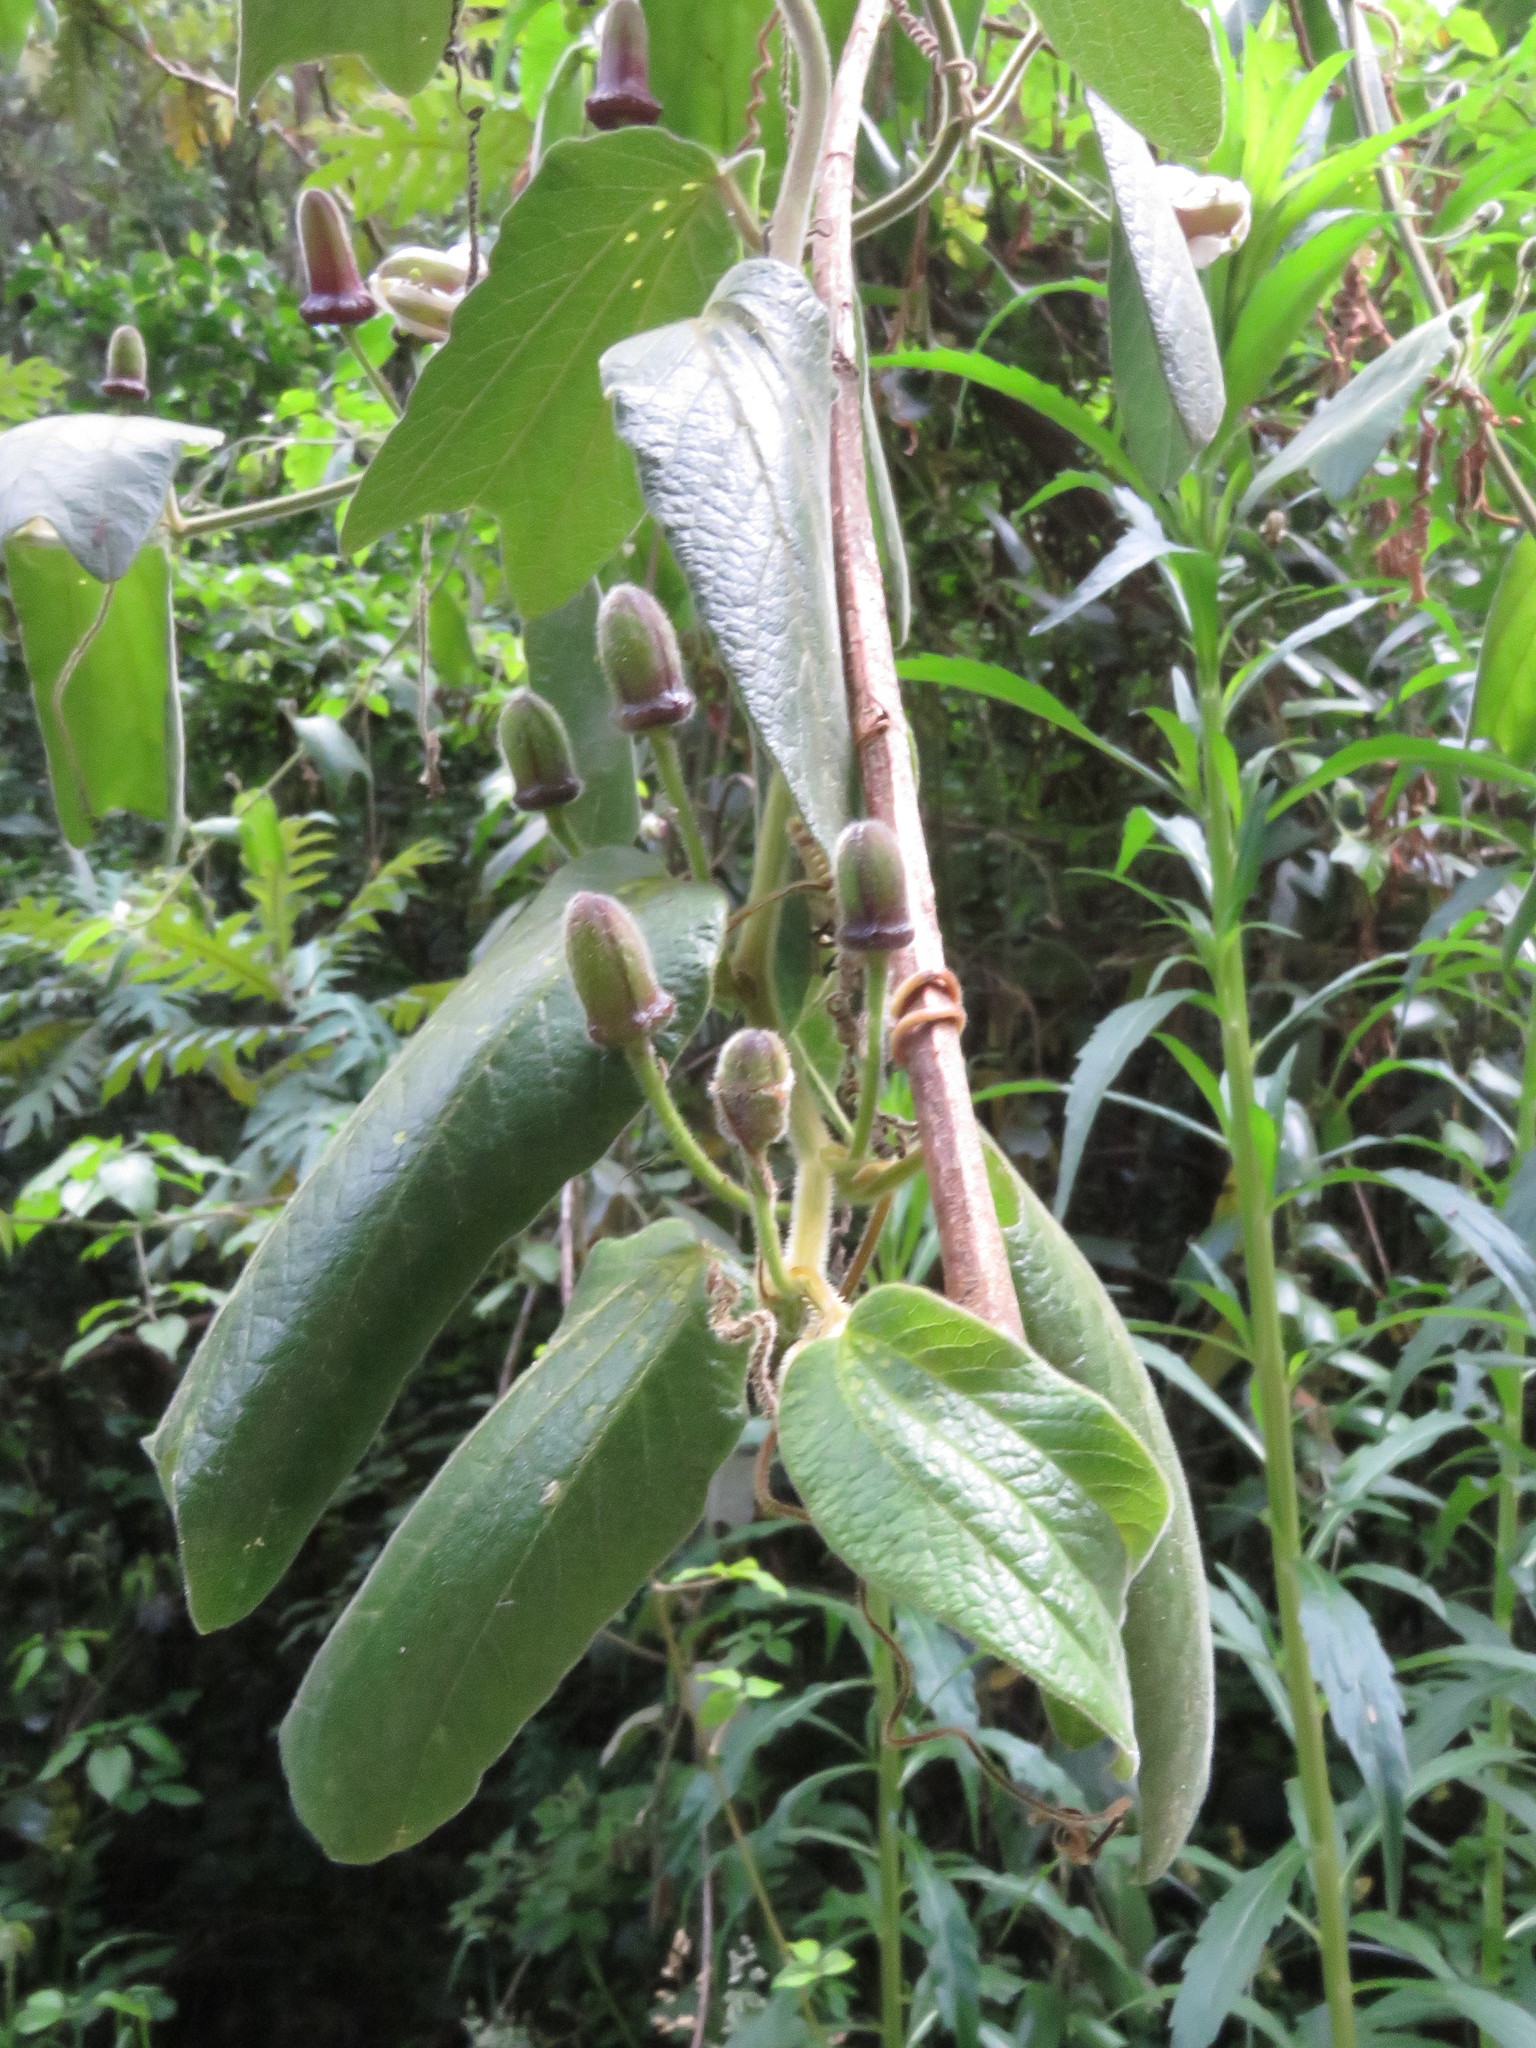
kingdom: Plantae
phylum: Tracheophyta
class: Magnoliopsida
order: Malpighiales
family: Passifloraceae
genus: Passiflora
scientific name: Passiflora bogotensis
